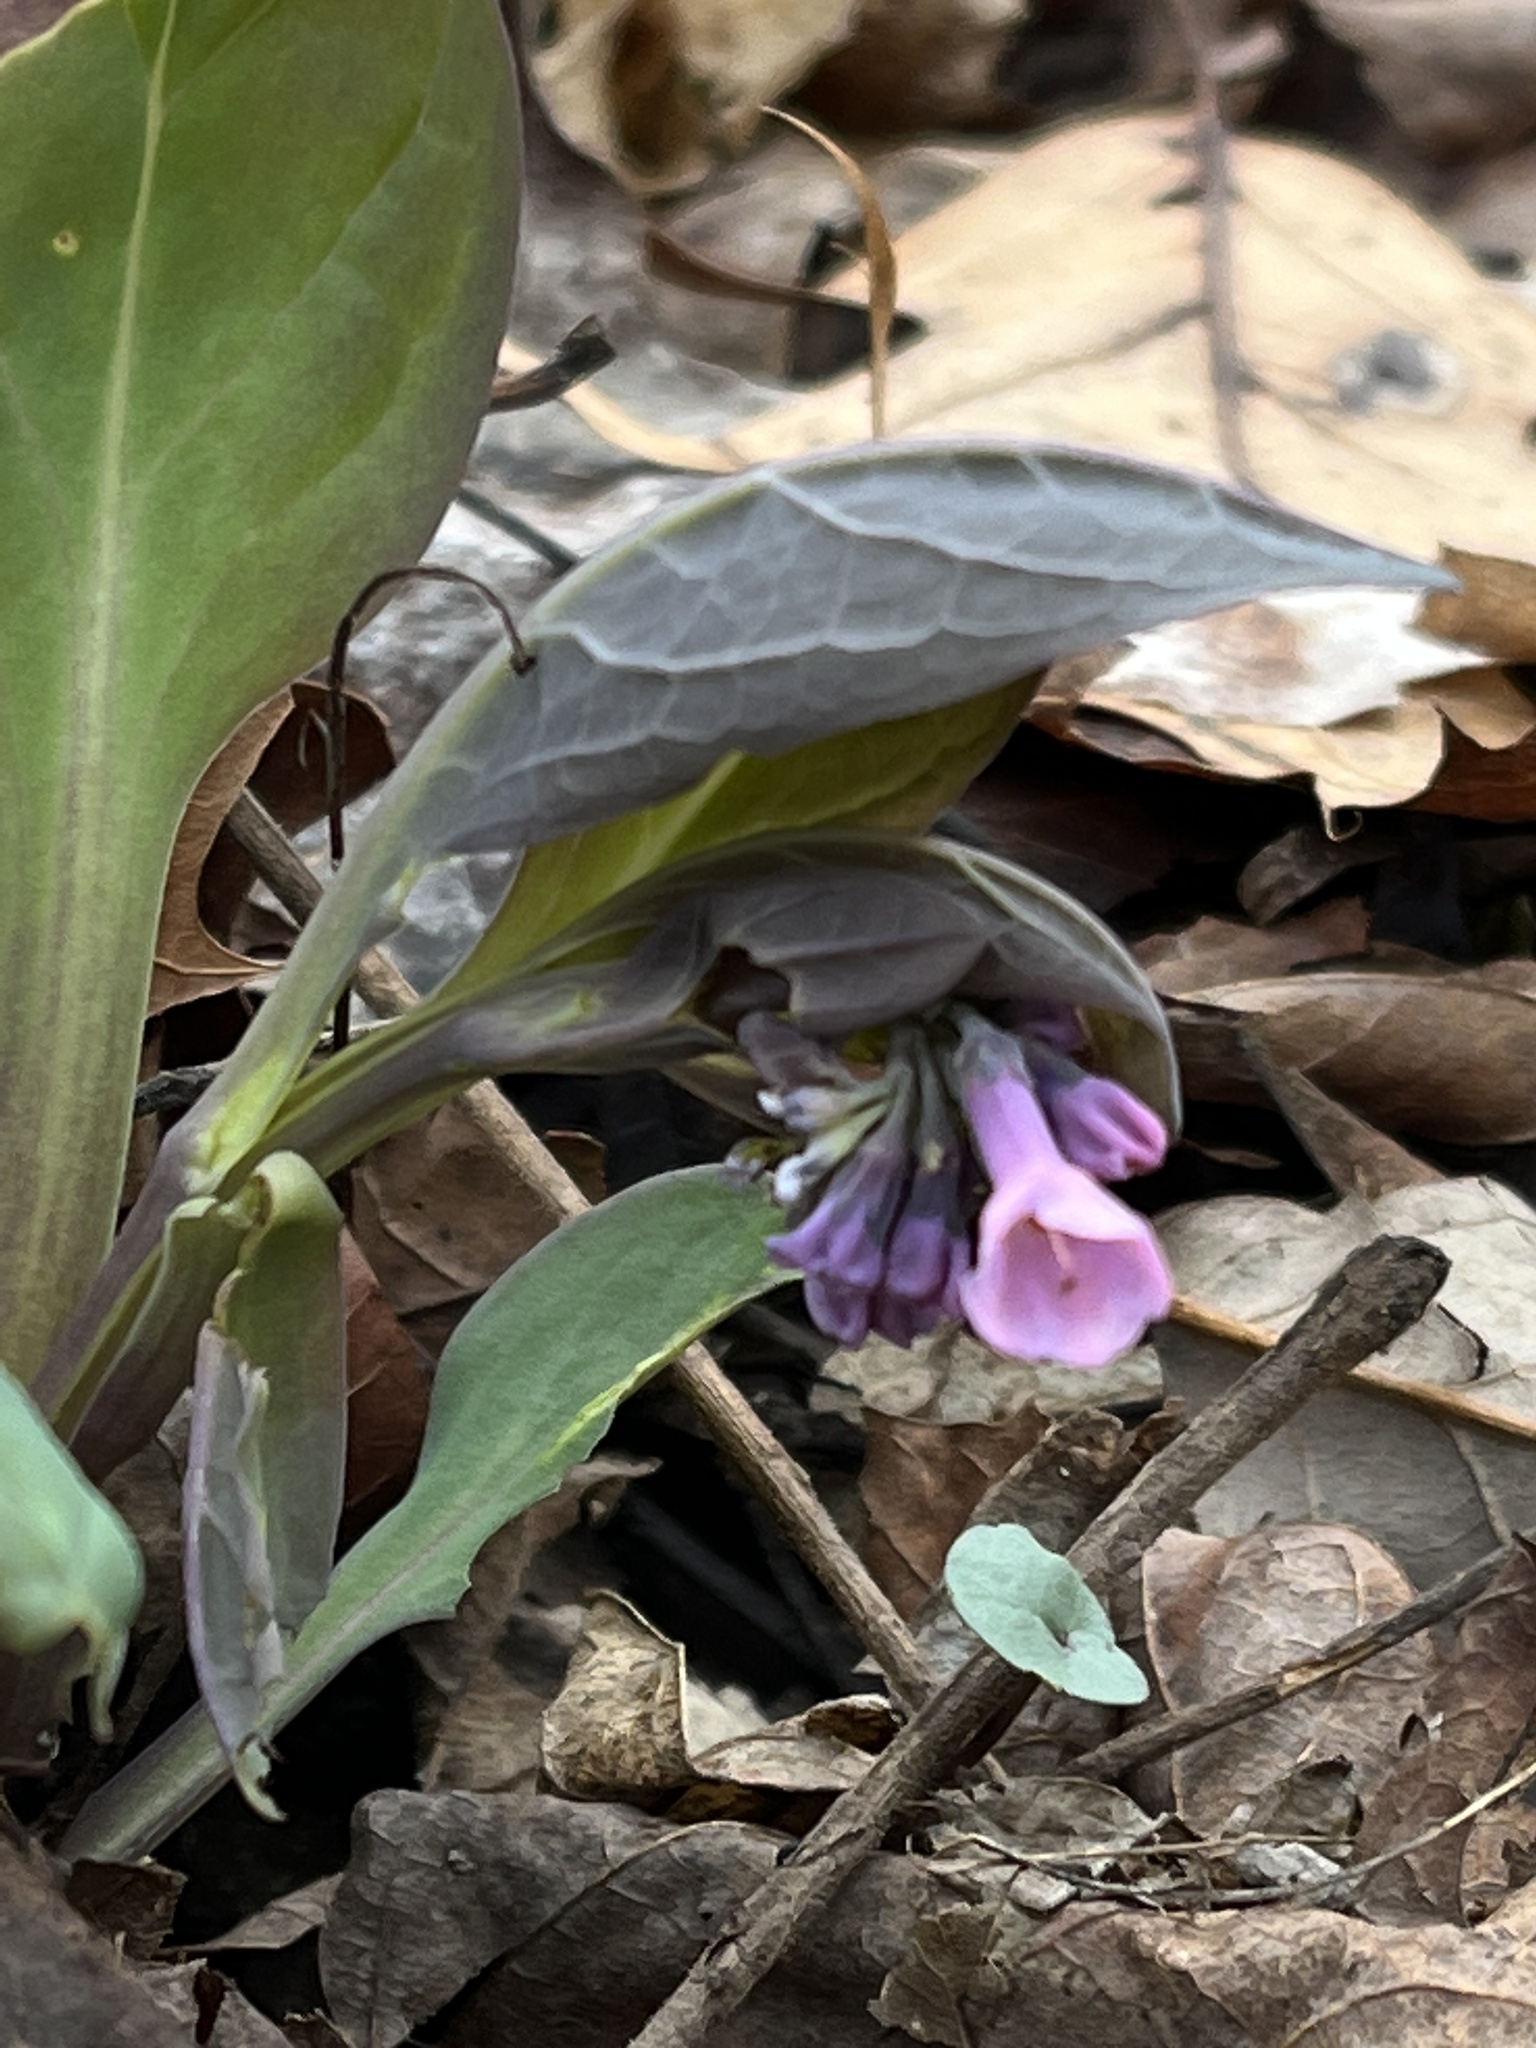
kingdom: Plantae
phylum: Tracheophyta
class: Magnoliopsida
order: Boraginales
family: Boraginaceae
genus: Mertensia
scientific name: Mertensia virginica
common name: Virginia bluebells
